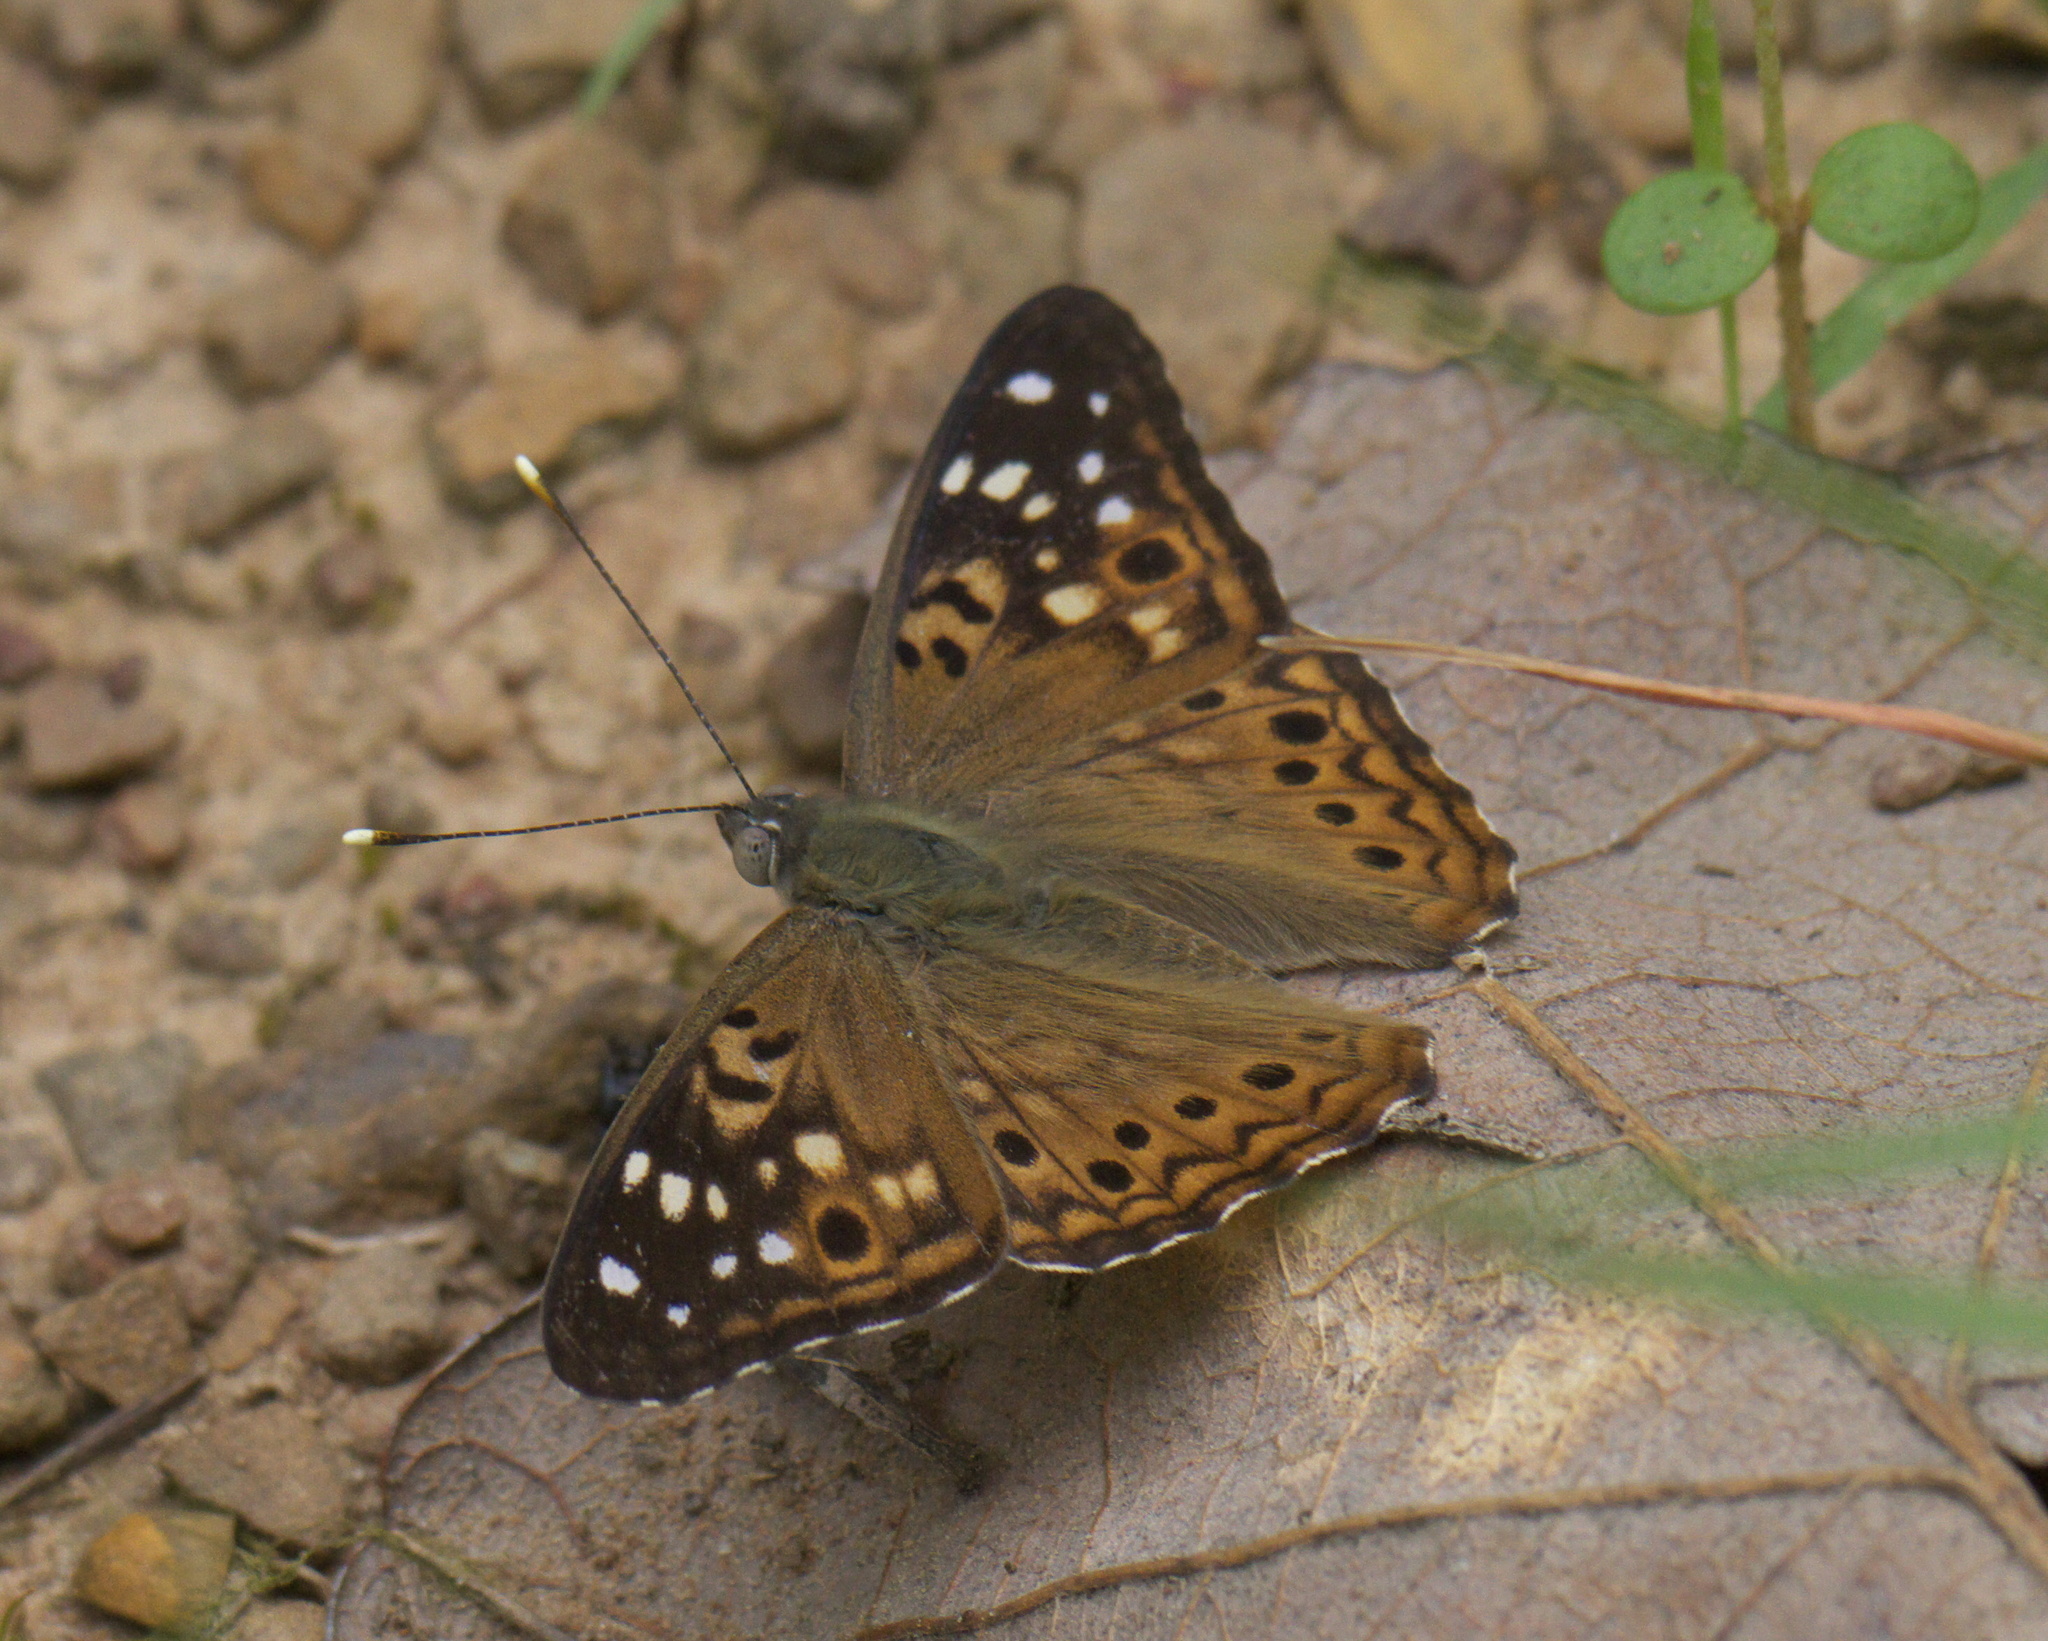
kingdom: Animalia
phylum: Arthropoda
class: Insecta
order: Lepidoptera
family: Nymphalidae
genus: Asterocampa
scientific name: Asterocampa celtis
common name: Hackberry emperor
